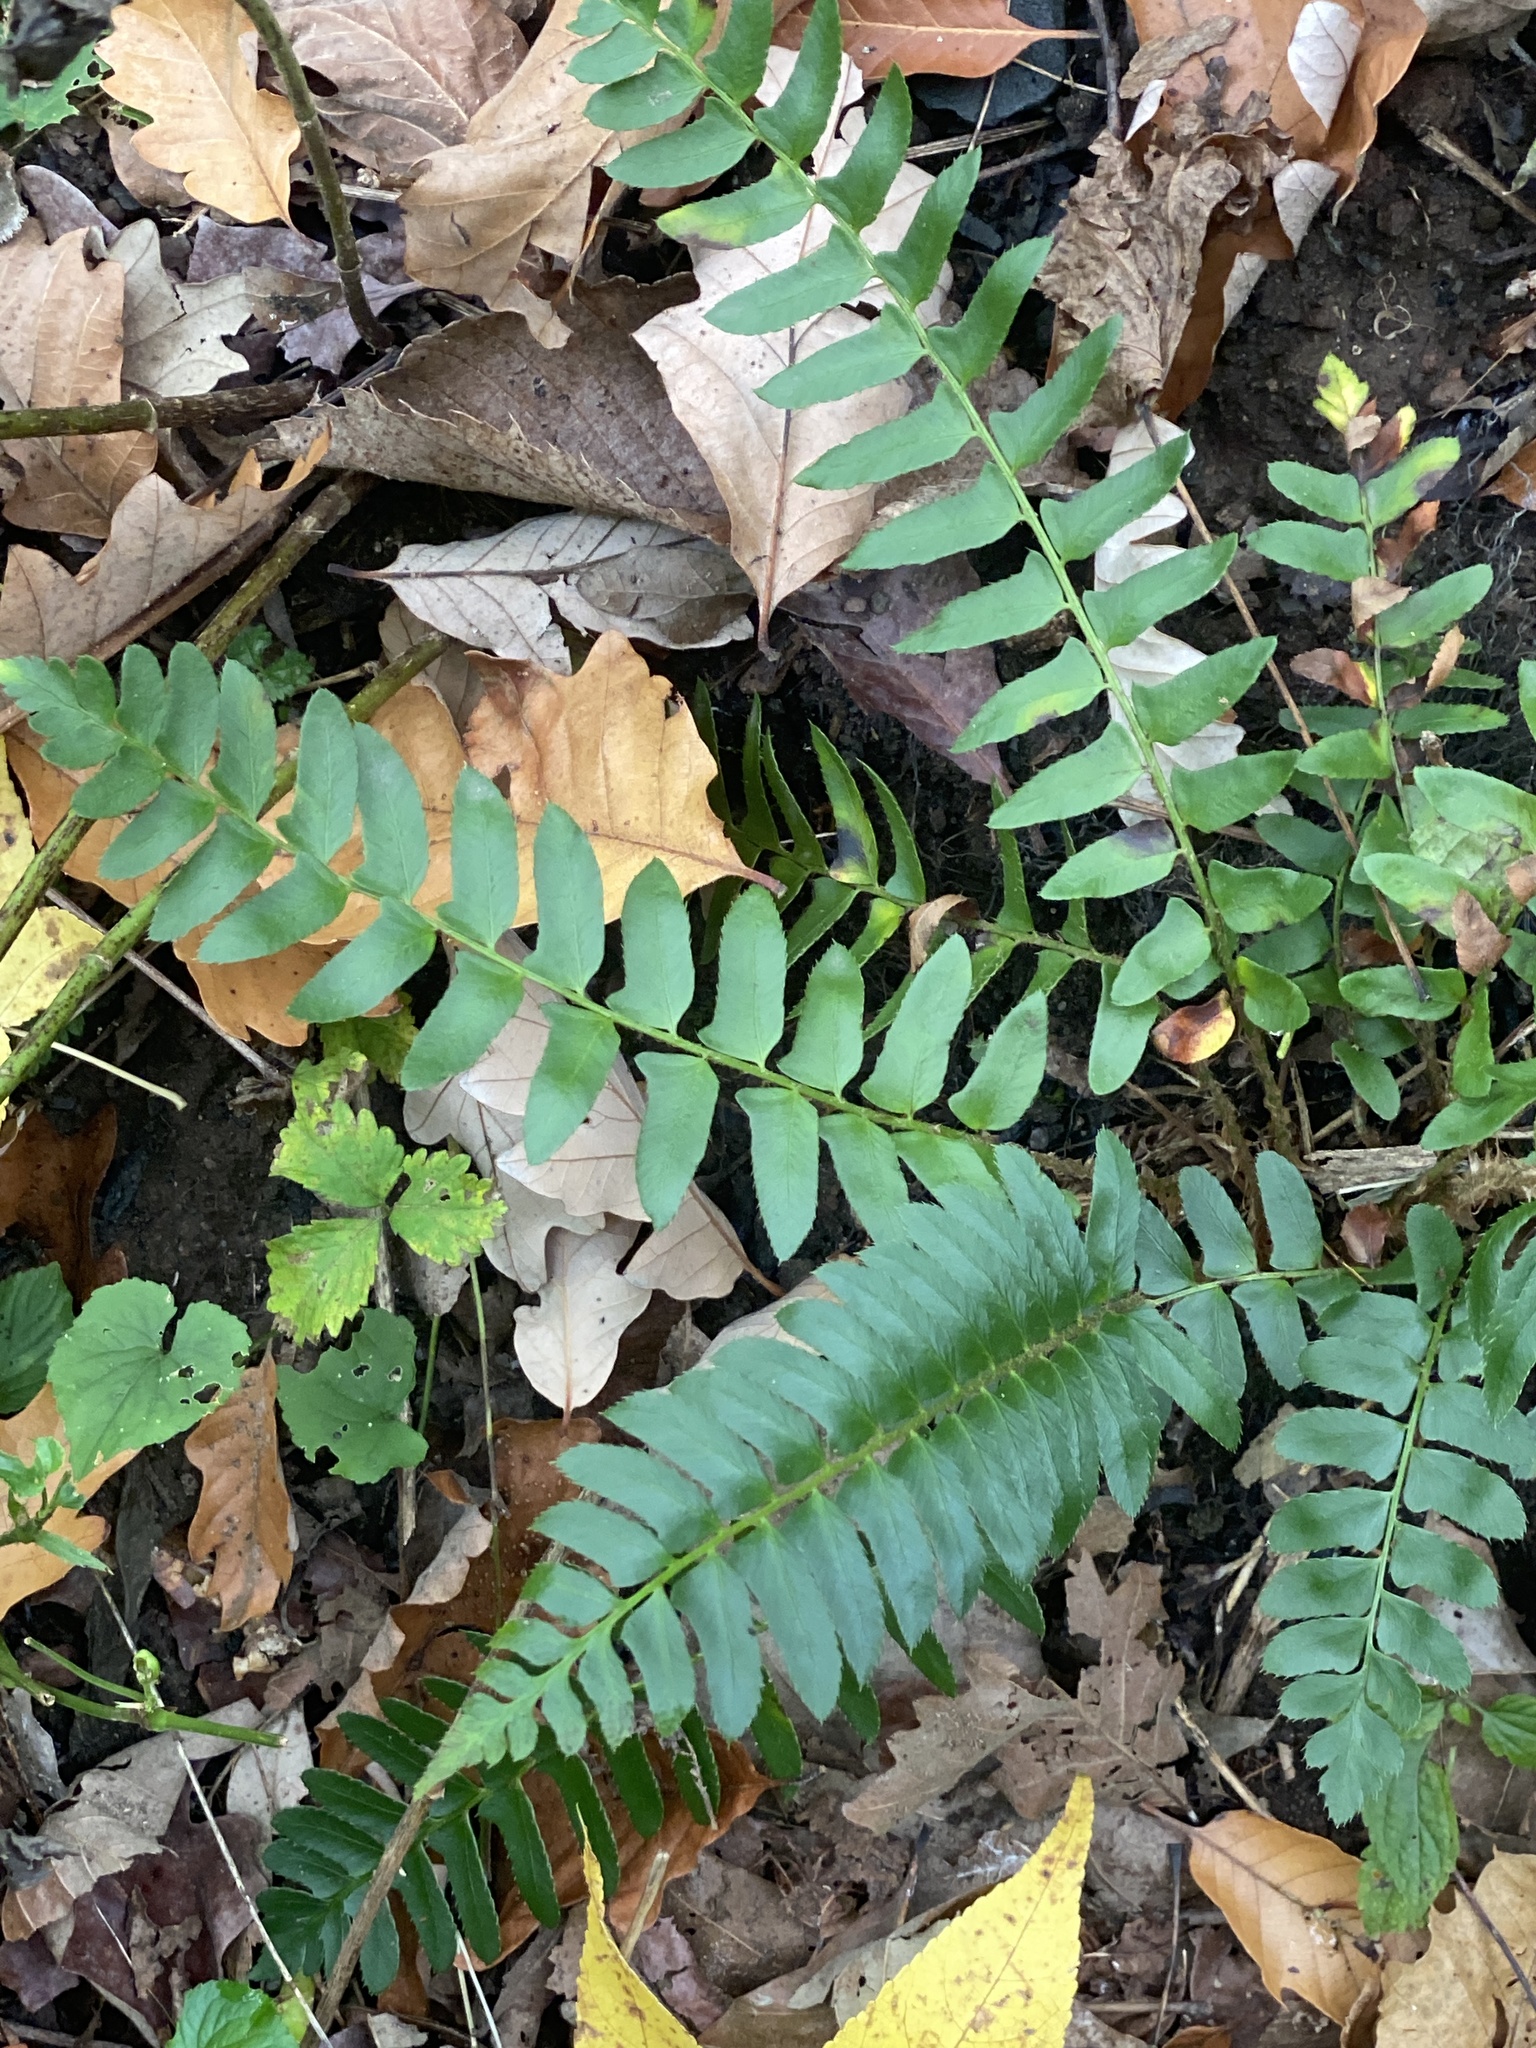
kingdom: Plantae
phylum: Tracheophyta
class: Polypodiopsida
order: Polypodiales
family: Dryopteridaceae
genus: Polystichum
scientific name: Polystichum acrostichoides
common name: Christmas fern
